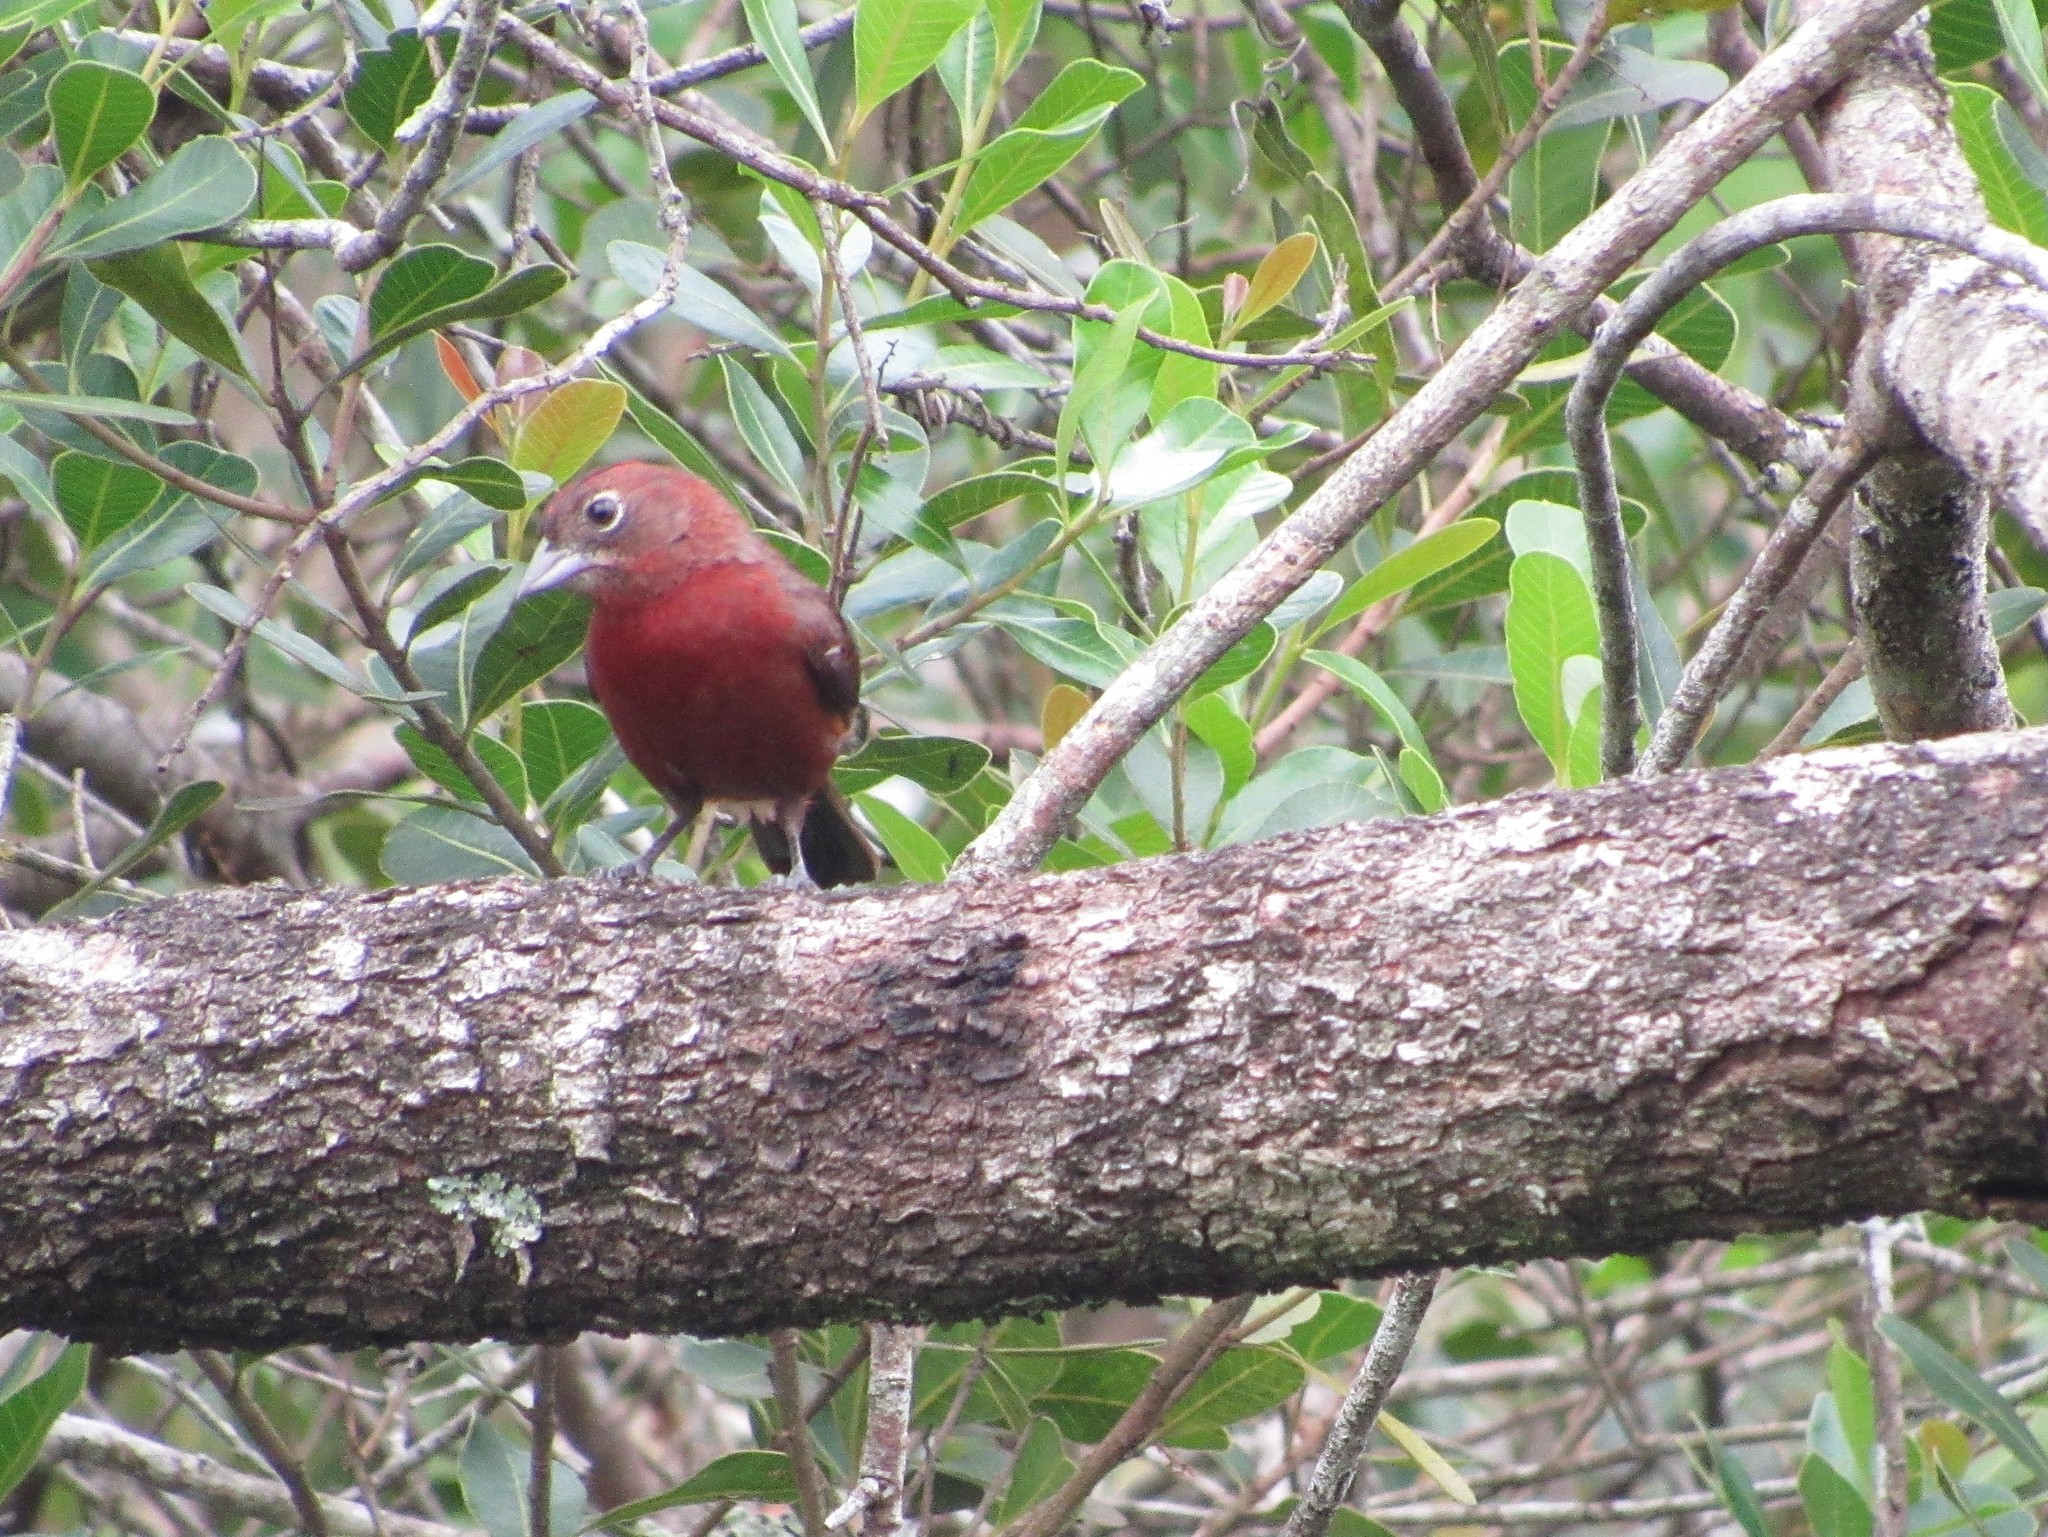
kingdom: Animalia
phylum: Chordata
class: Aves
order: Passeriformes
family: Thraupidae
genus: Coryphospingus
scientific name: Coryphospingus cucullatus
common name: Red pileated finch
